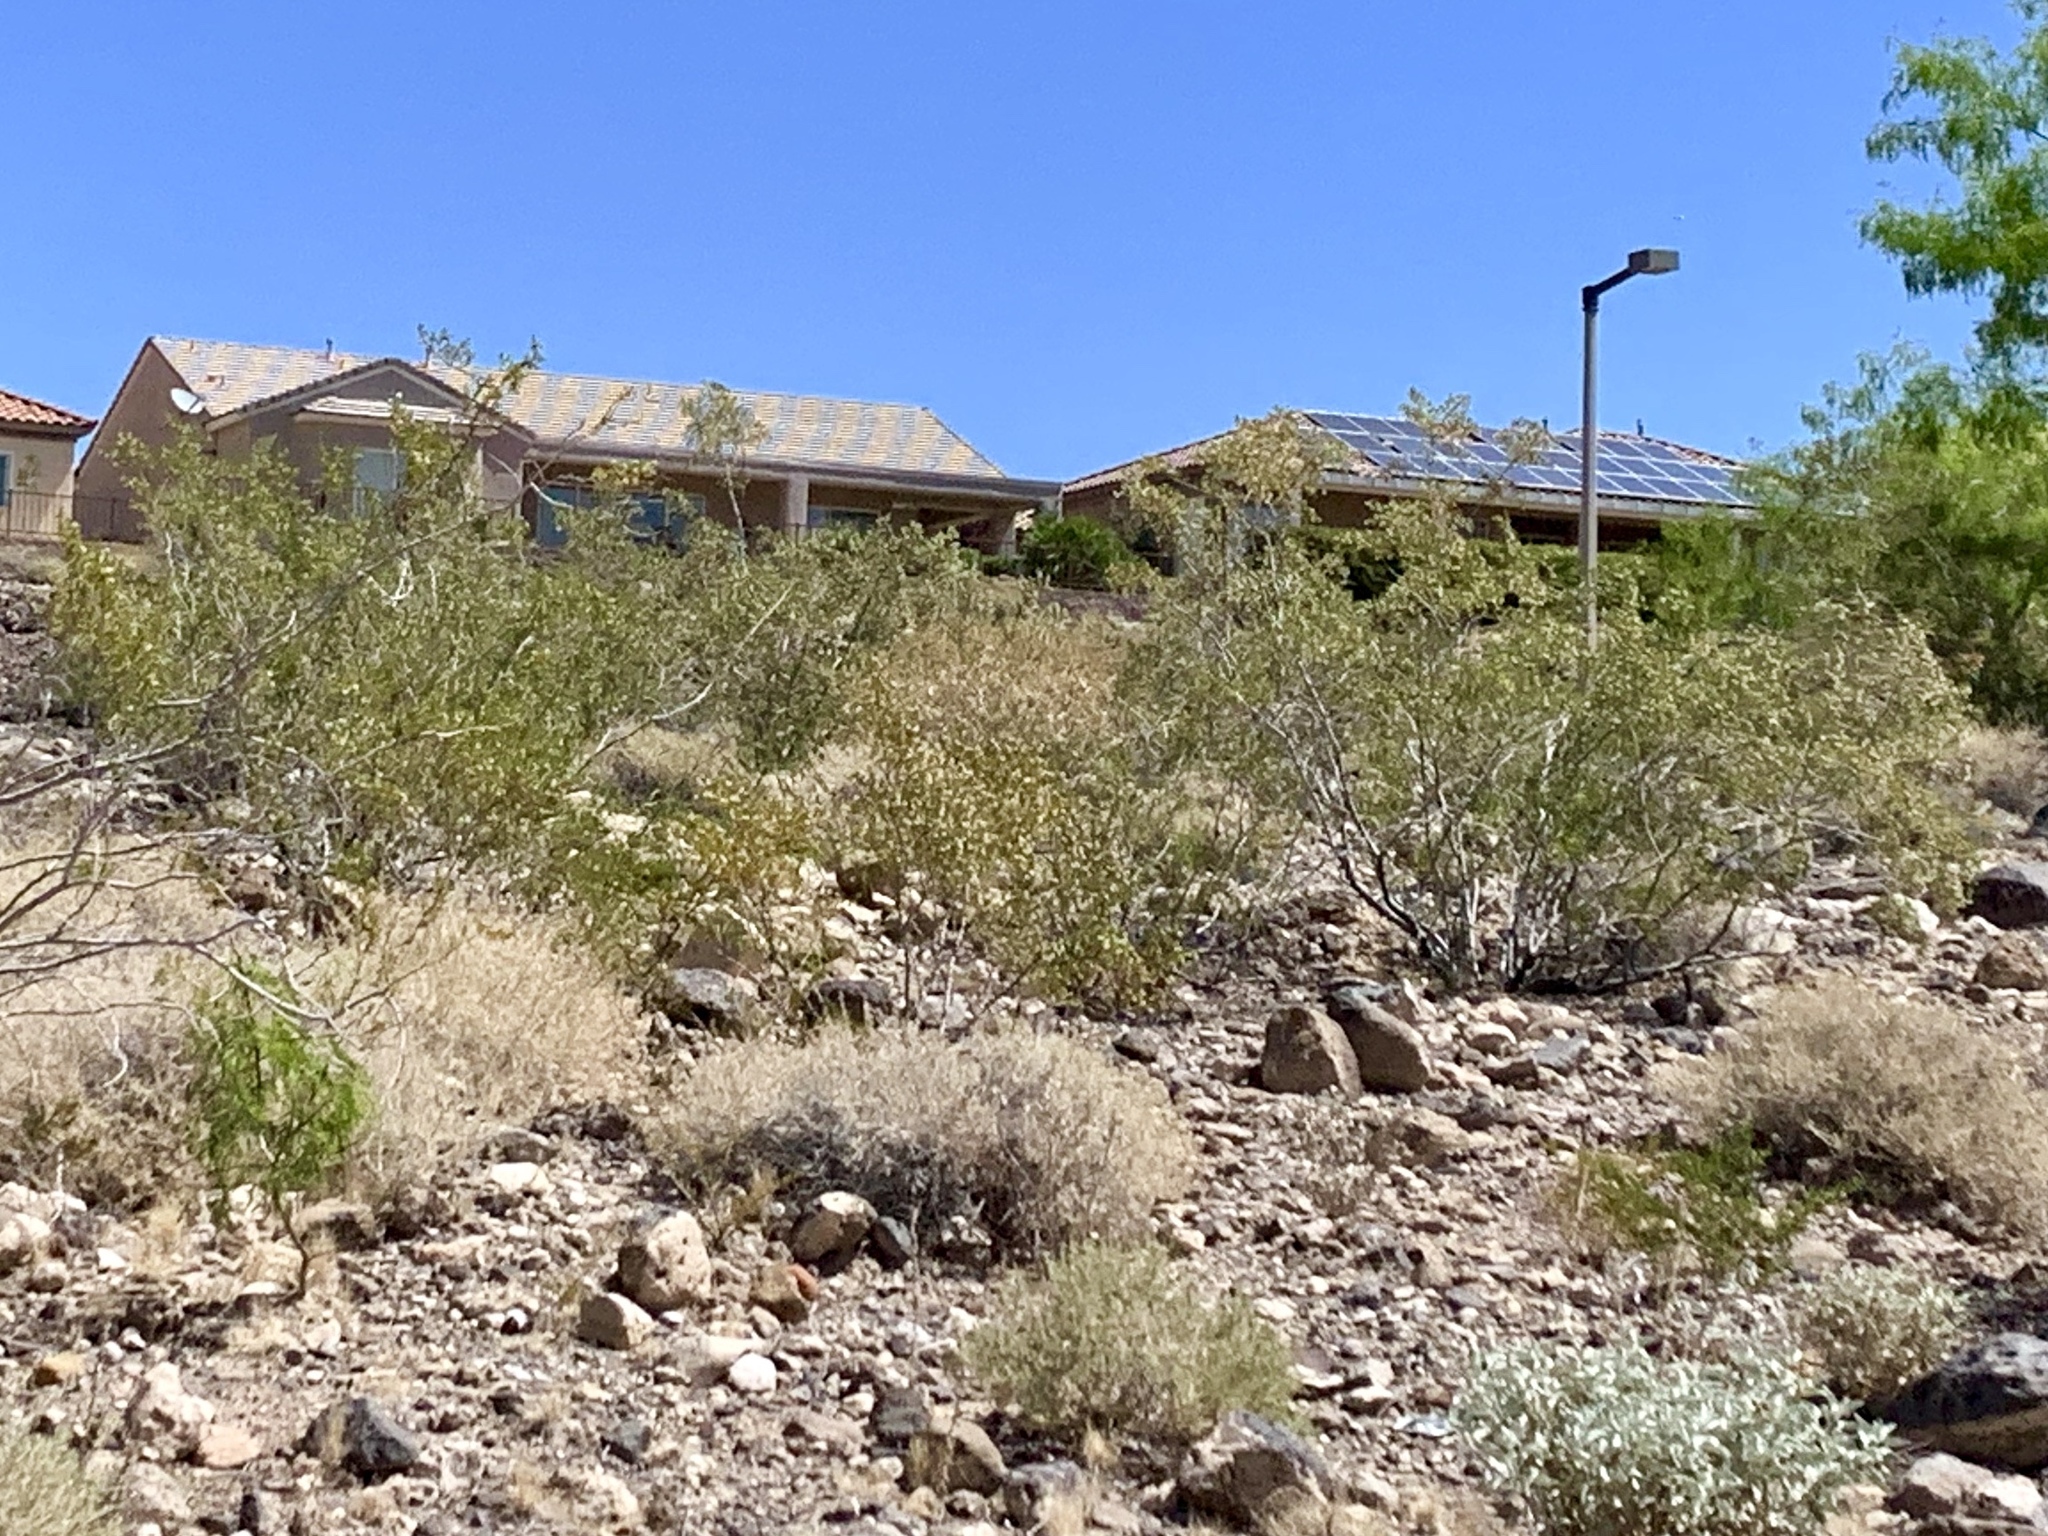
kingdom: Plantae
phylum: Tracheophyta
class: Magnoliopsida
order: Zygophyllales
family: Zygophyllaceae
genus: Larrea
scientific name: Larrea tridentata
